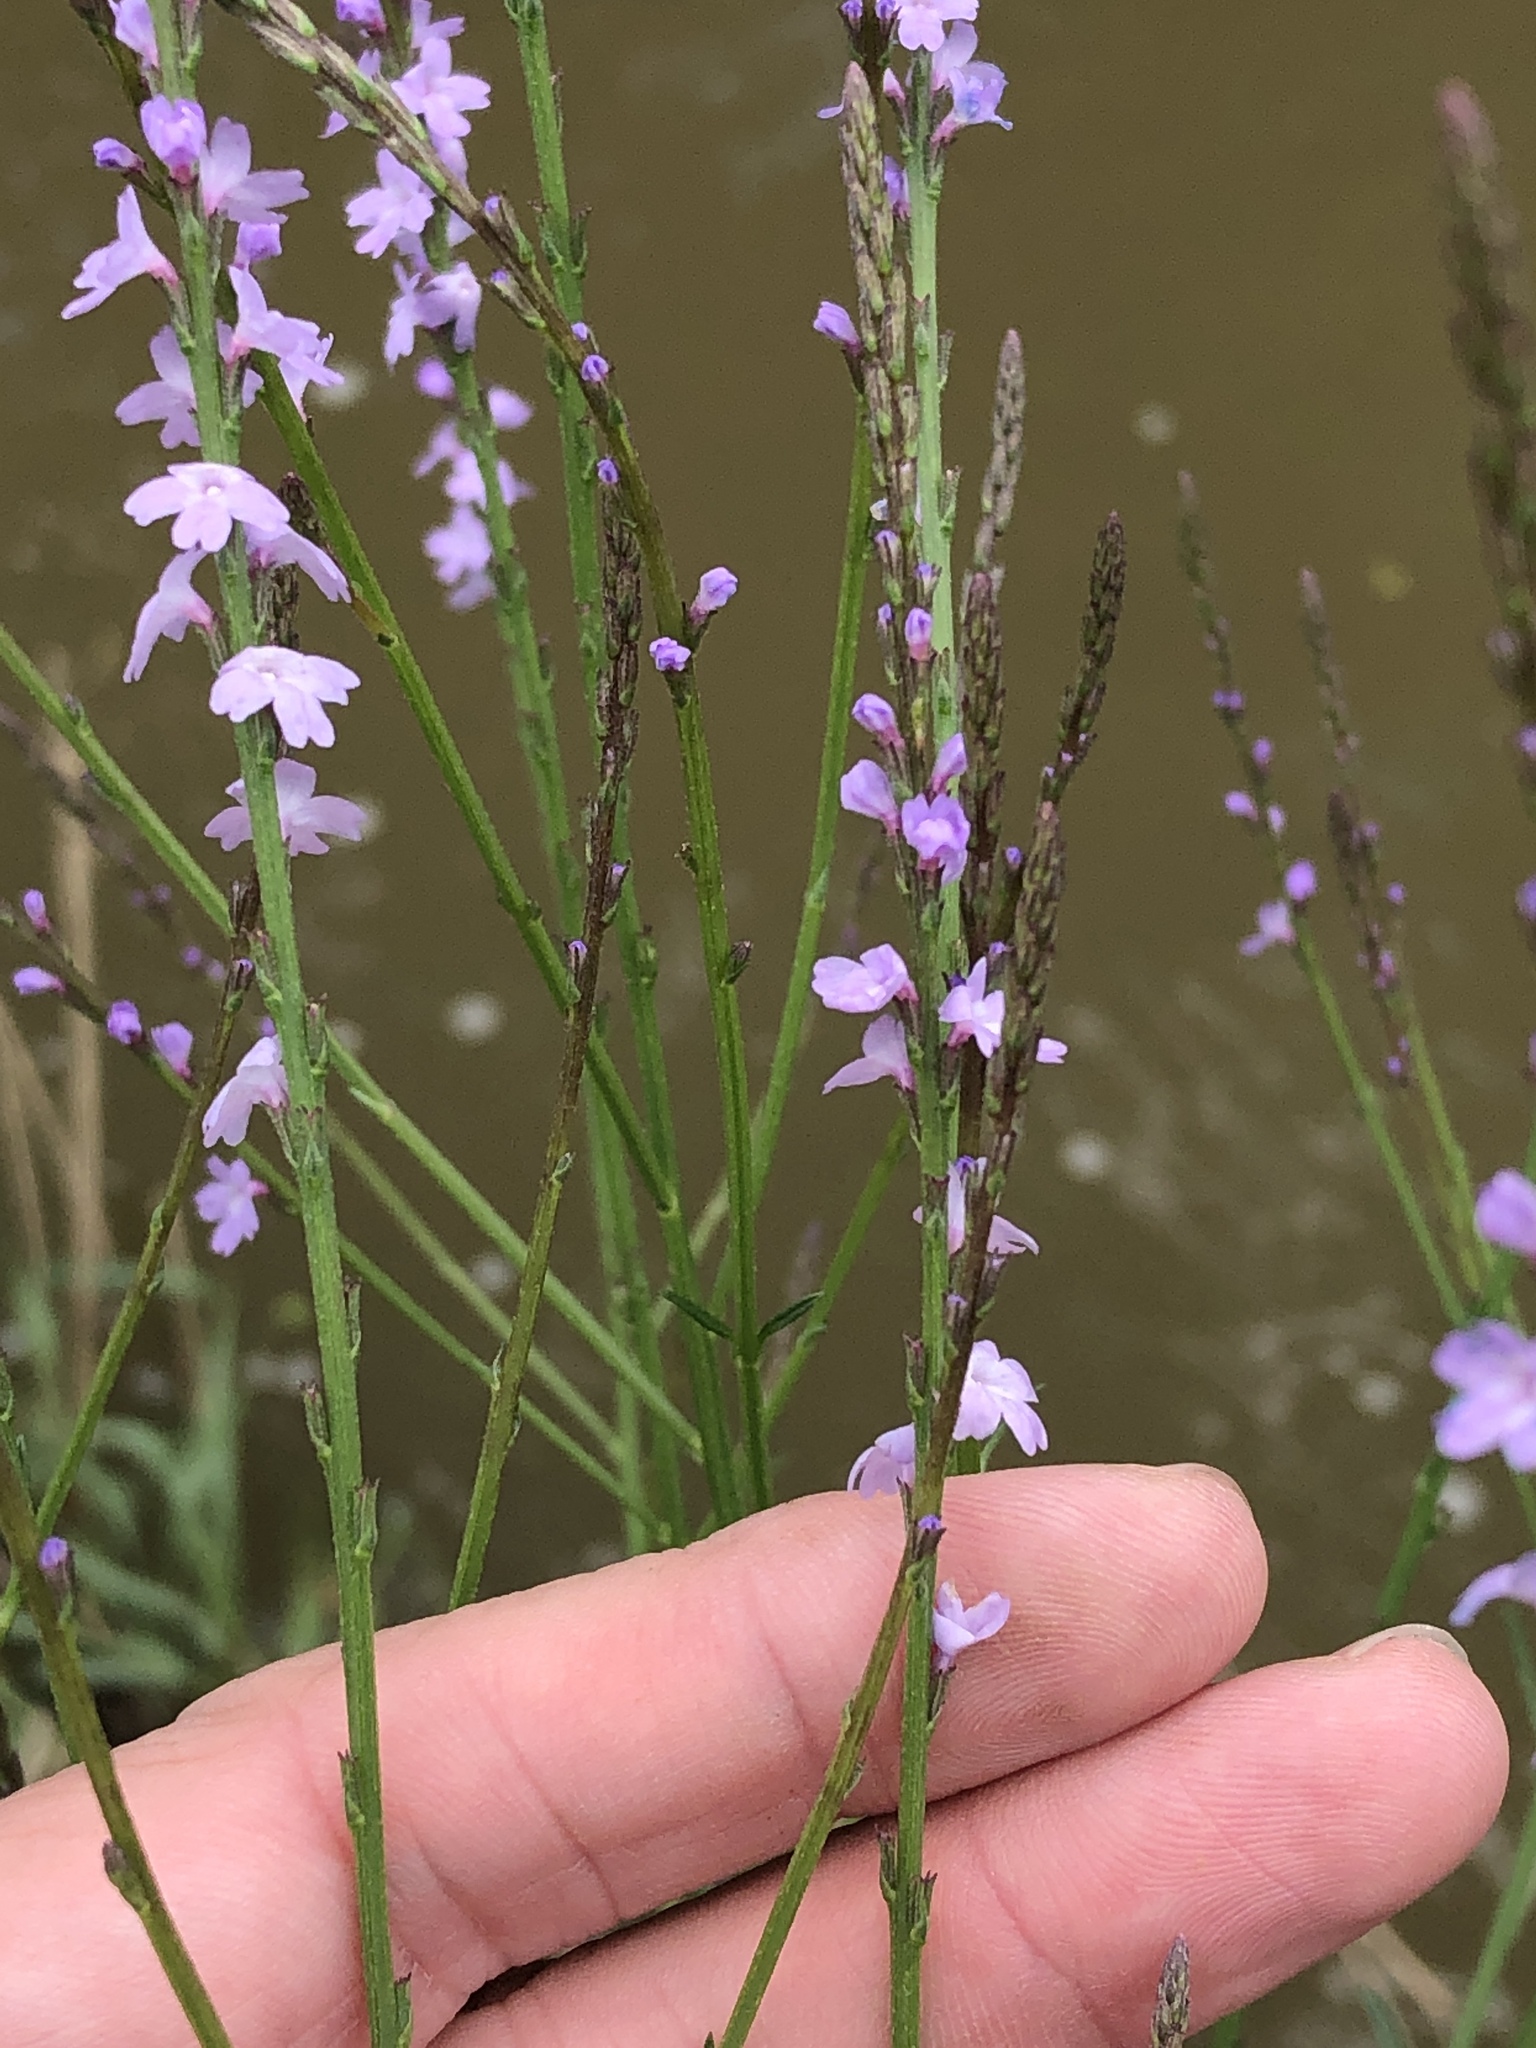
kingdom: Plantae
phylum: Tracheophyta
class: Magnoliopsida
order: Lamiales
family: Verbenaceae
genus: Verbena
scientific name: Verbena halei
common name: Texas vervain
